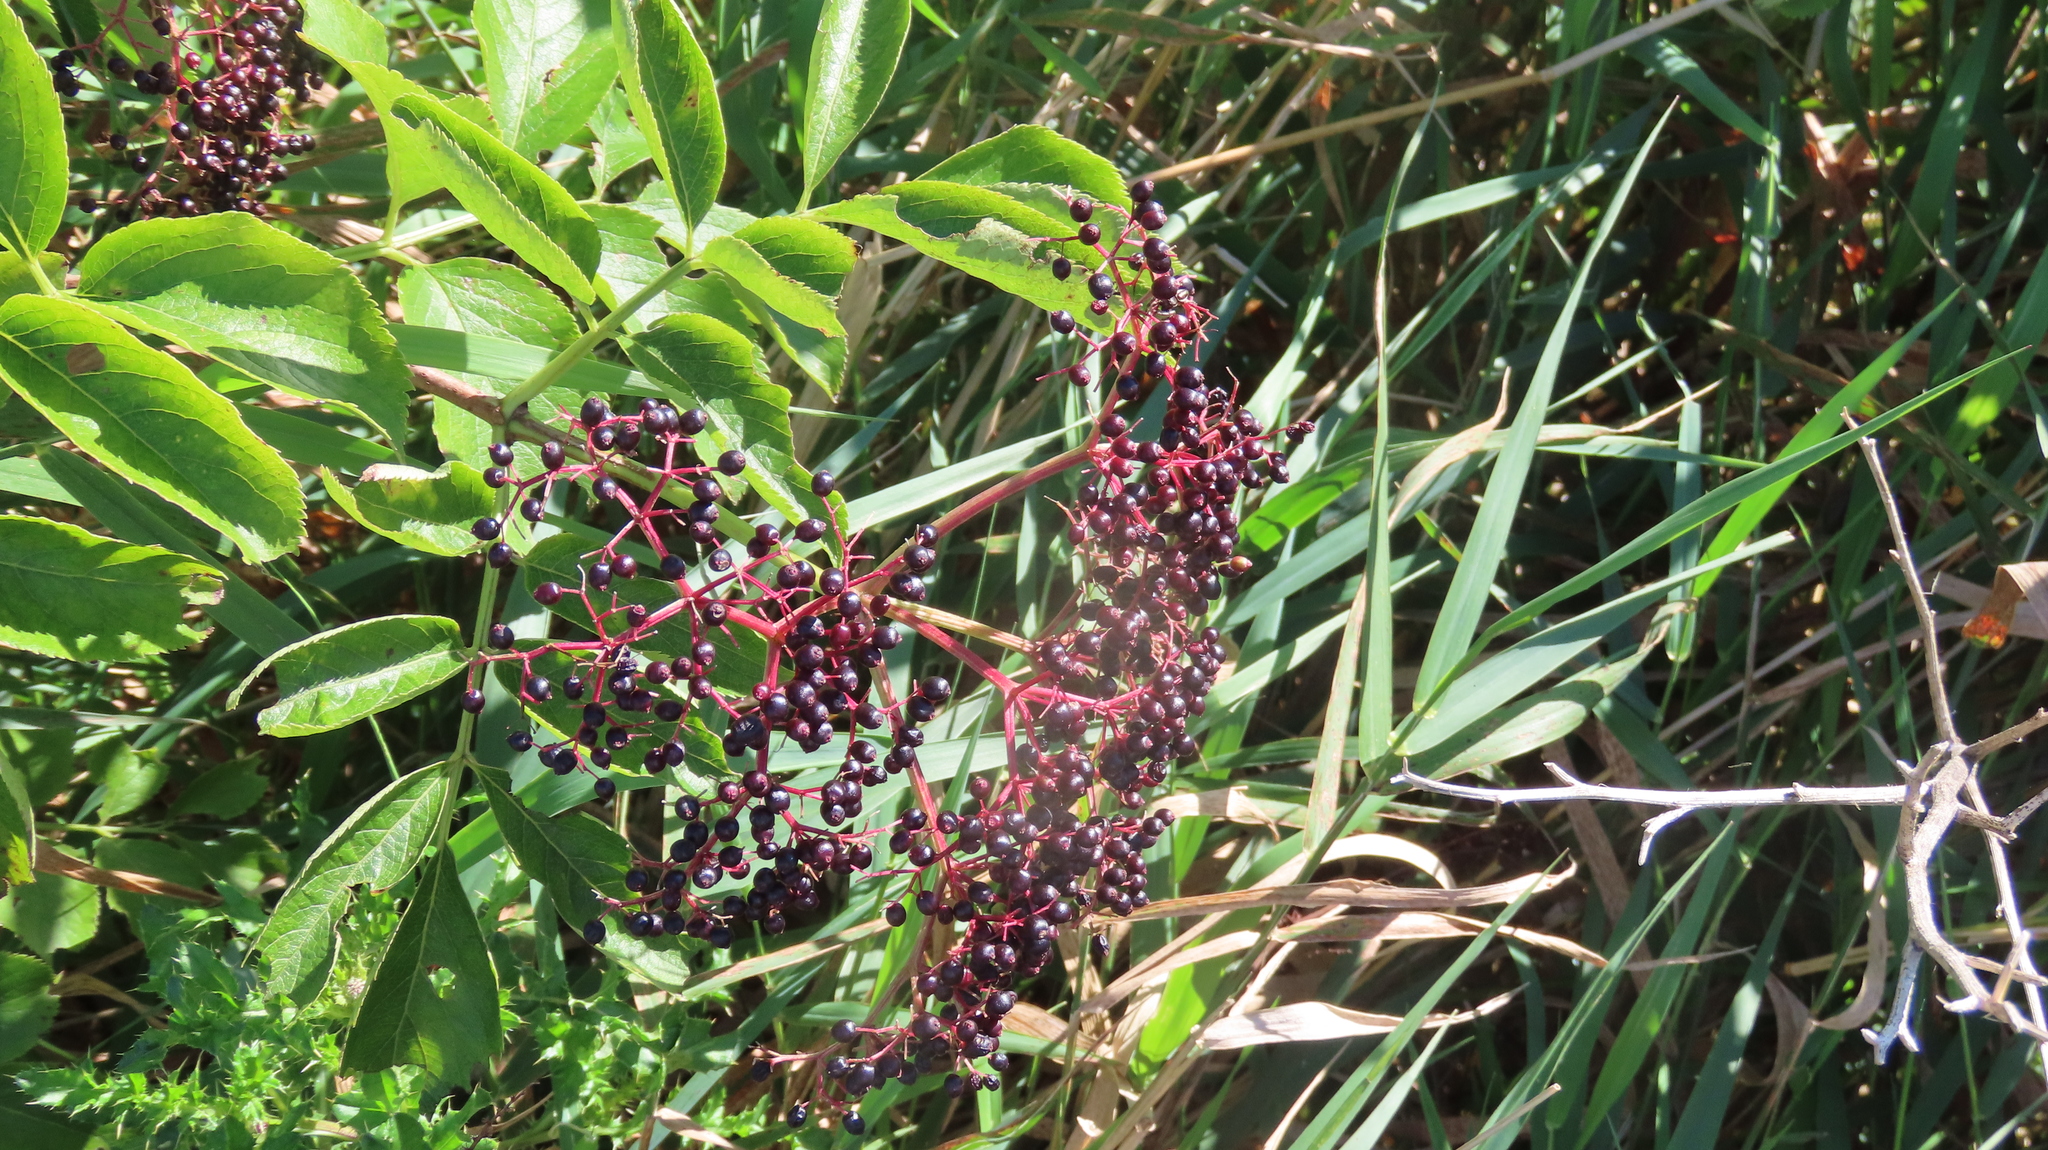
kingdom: Plantae
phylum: Tracheophyta
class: Magnoliopsida
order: Dipsacales
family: Viburnaceae
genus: Sambucus
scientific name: Sambucus canadensis
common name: American elder
